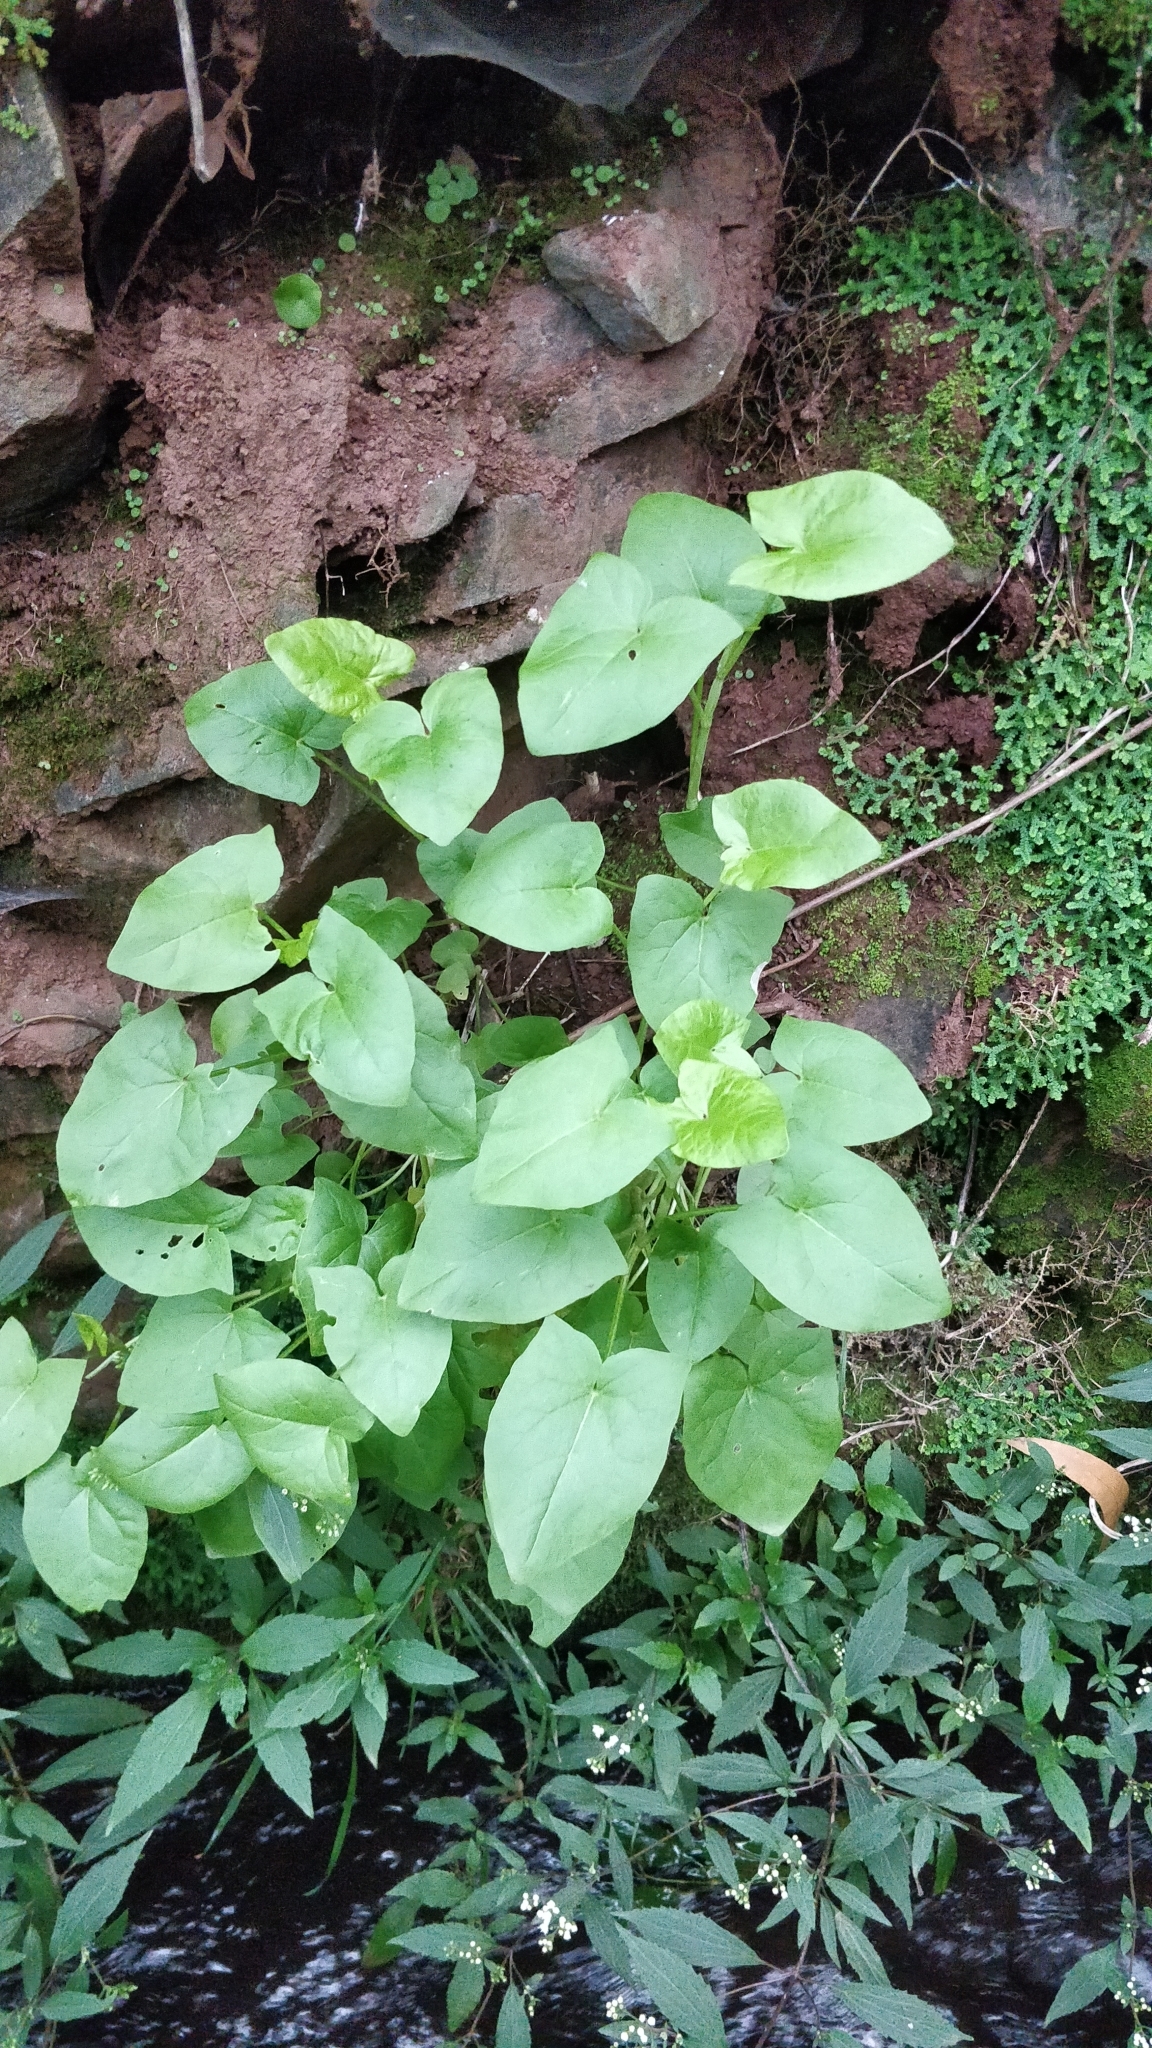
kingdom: Plantae
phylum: Tracheophyta
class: Magnoliopsida
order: Caryophyllales
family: Polygonaceae
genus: Rumex
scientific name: Rumex maderensis
